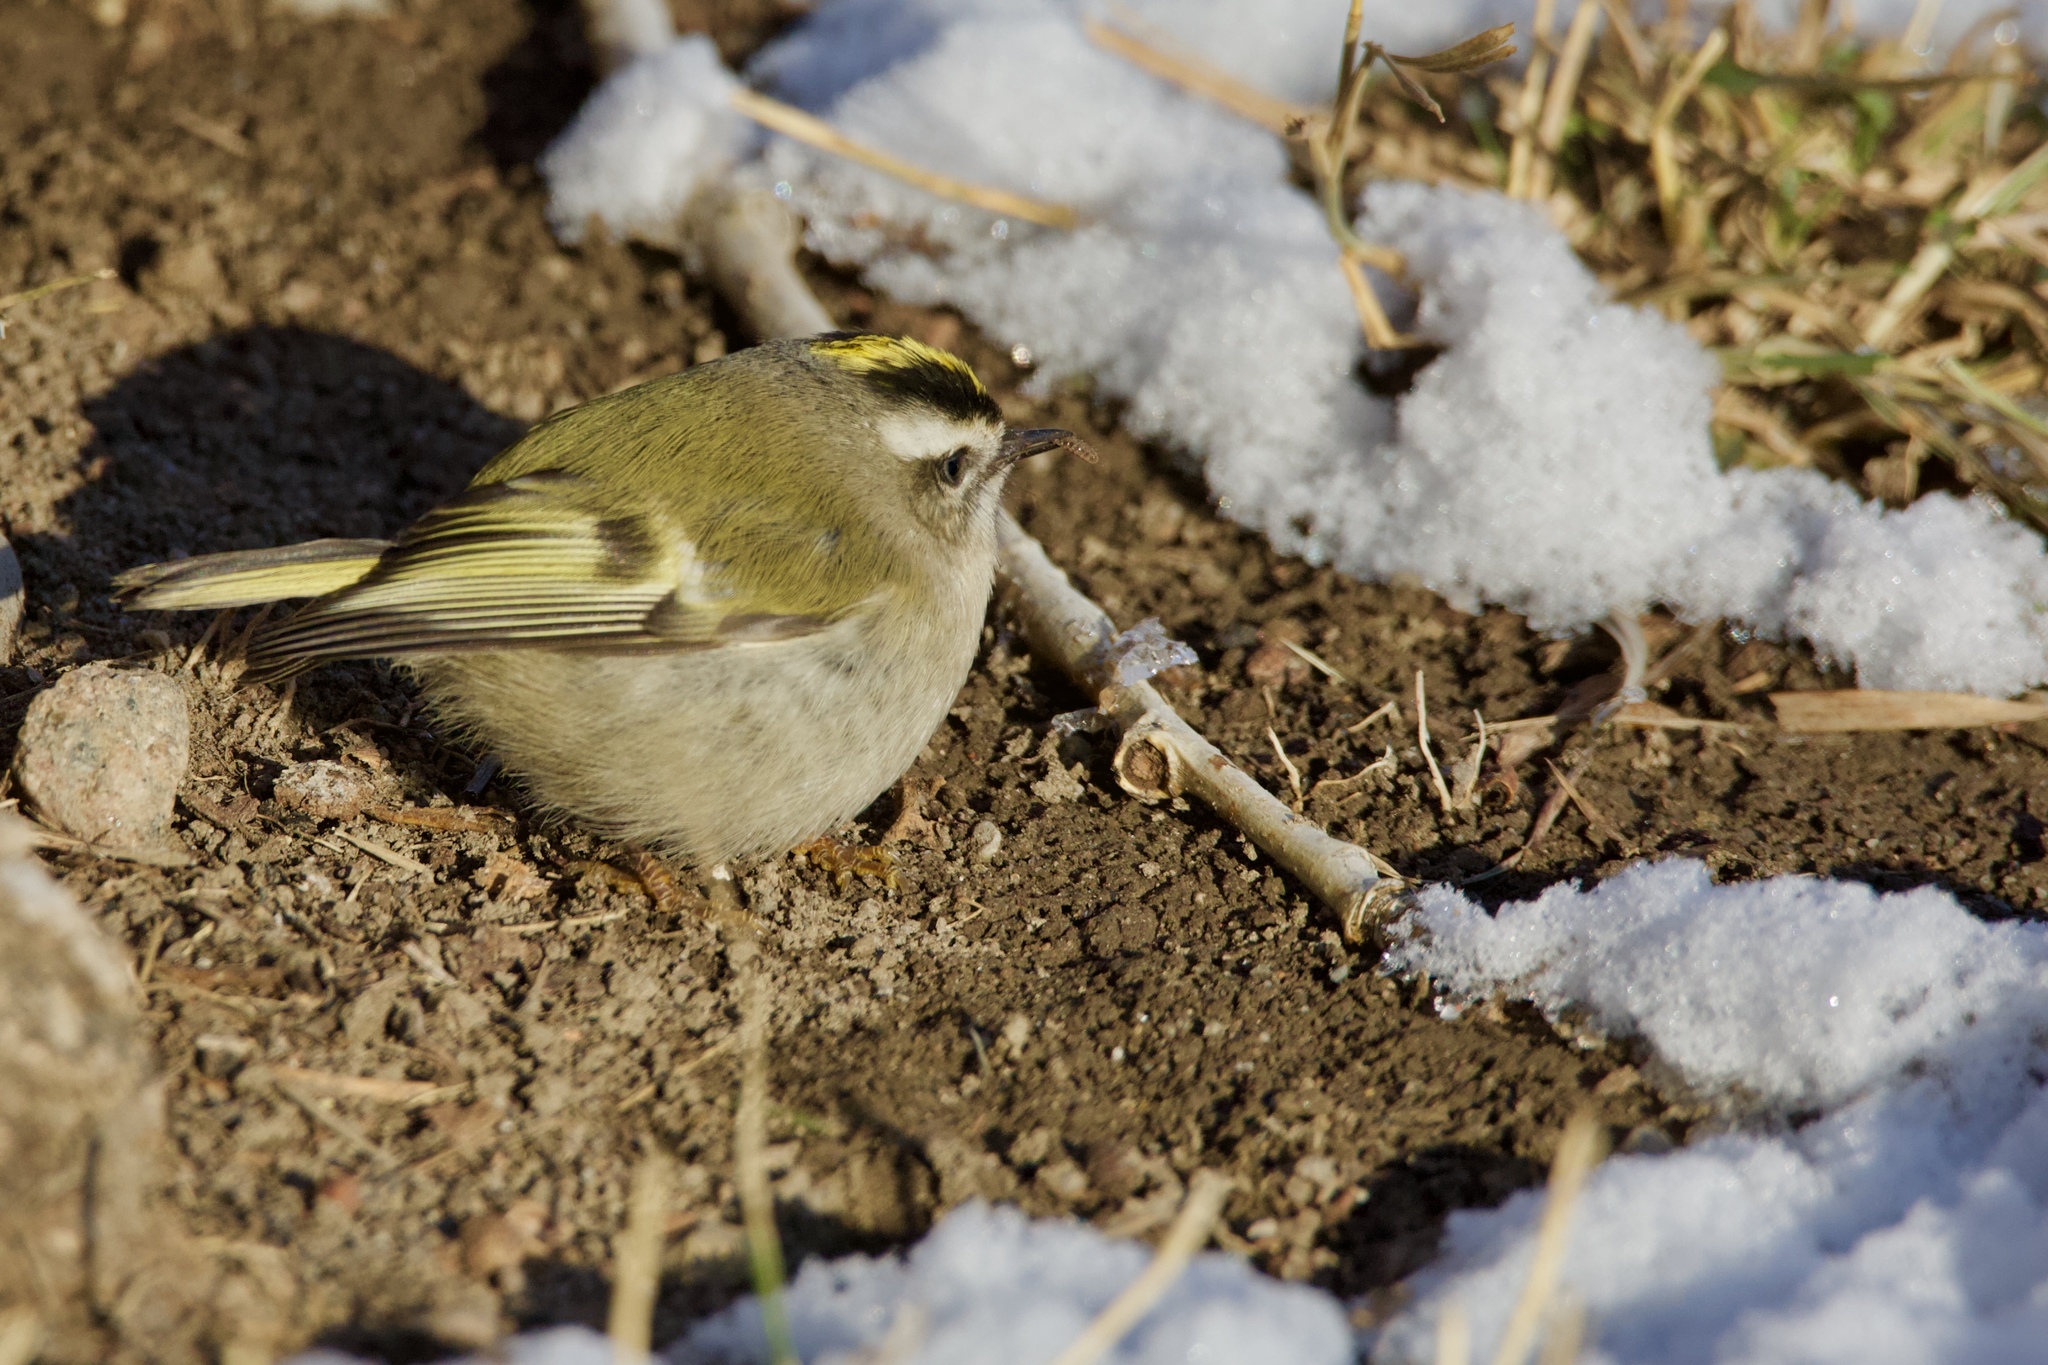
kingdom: Animalia
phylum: Chordata
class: Aves
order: Passeriformes
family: Regulidae
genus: Regulus
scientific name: Regulus satrapa
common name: Golden-crowned kinglet
